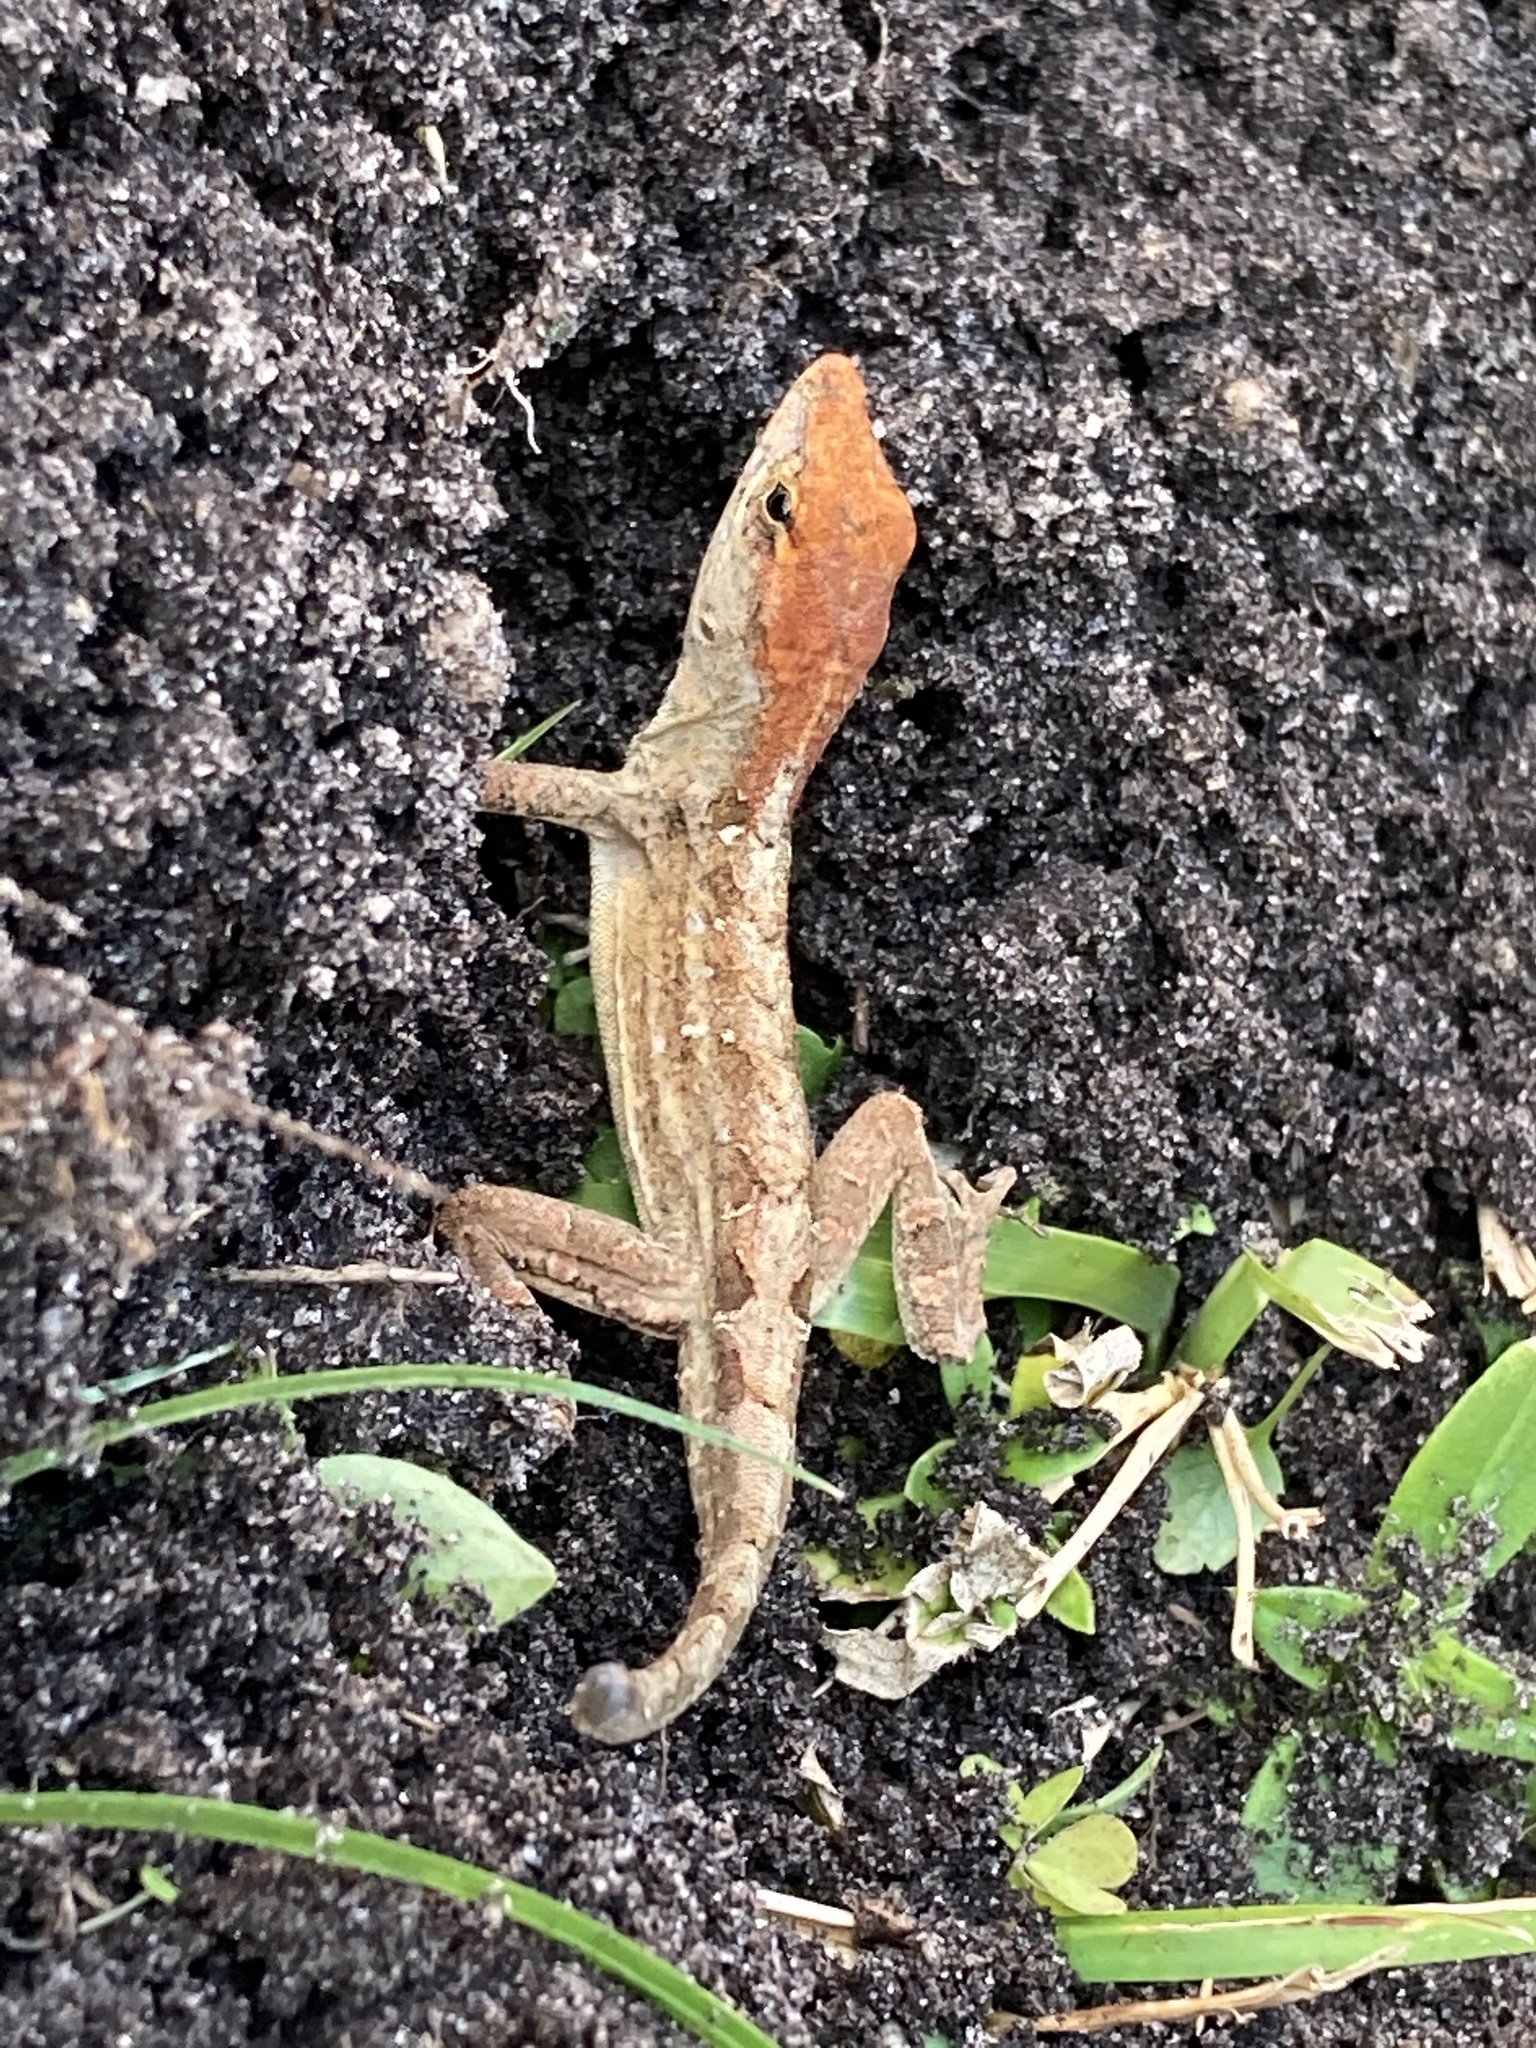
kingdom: Animalia
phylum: Chordata
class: Squamata
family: Dactyloidae
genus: Anolis
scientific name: Anolis sagrei
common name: Brown anole
